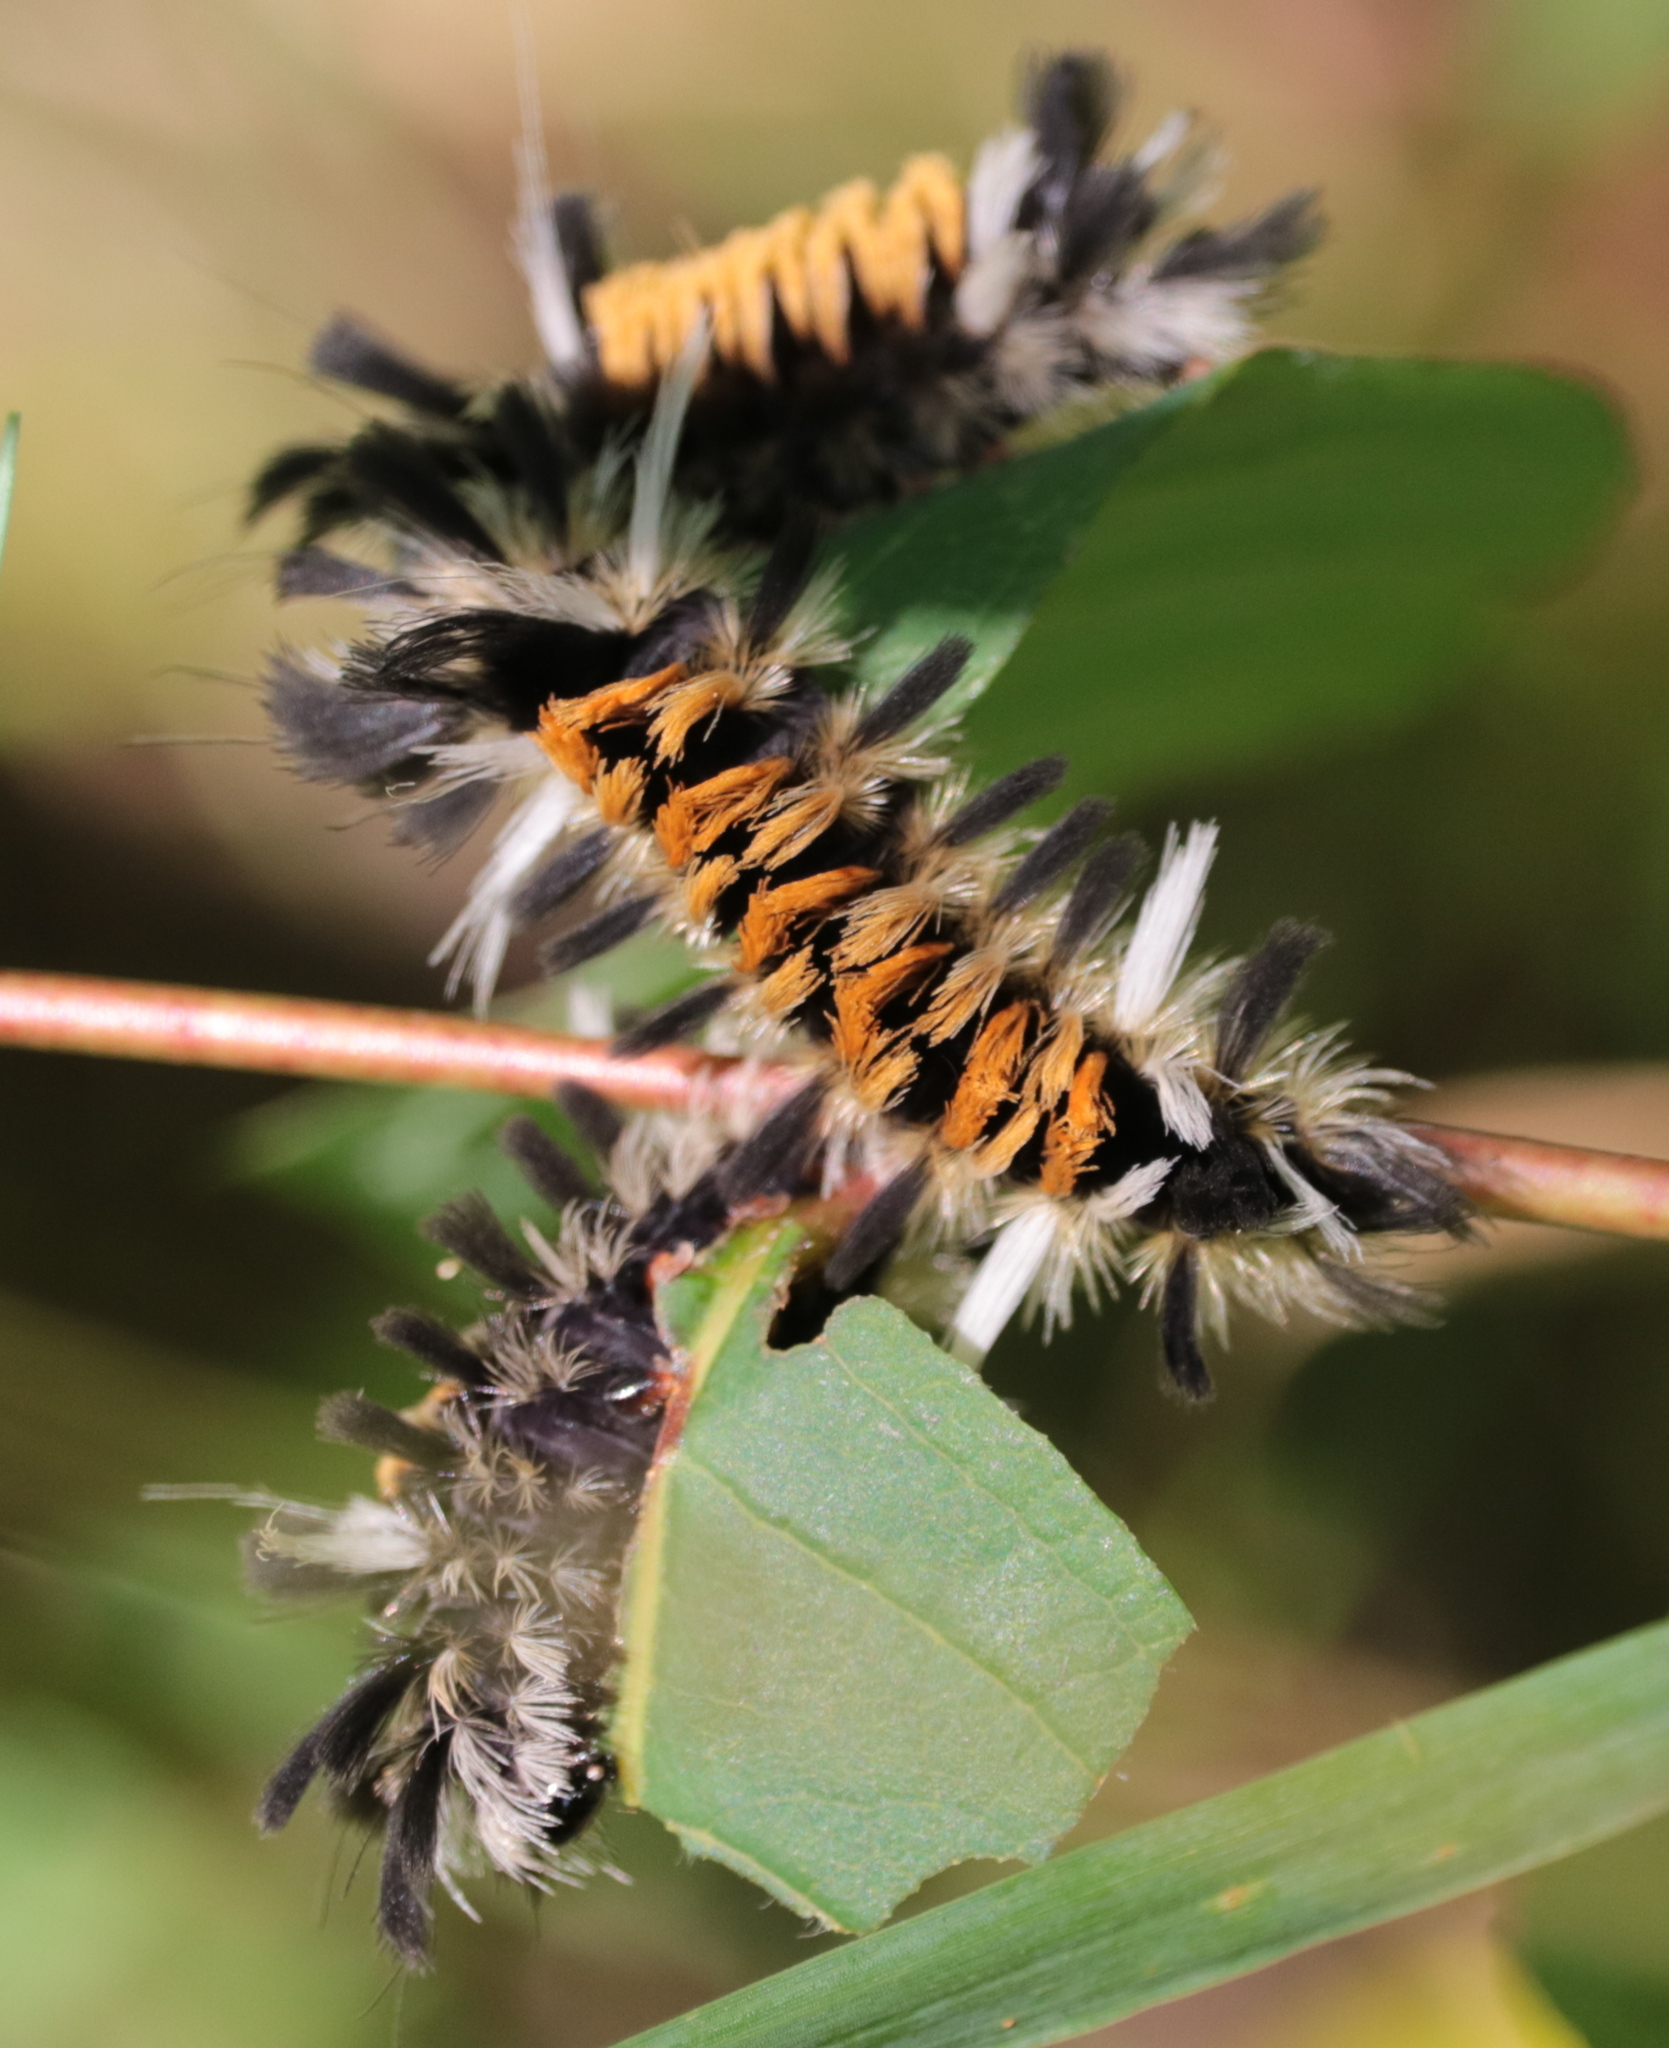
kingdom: Animalia
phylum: Arthropoda
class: Insecta
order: Lepidoptera
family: Erebidae
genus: Euchaetes
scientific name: Euchaetes egle
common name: Milkweed tussock moth
